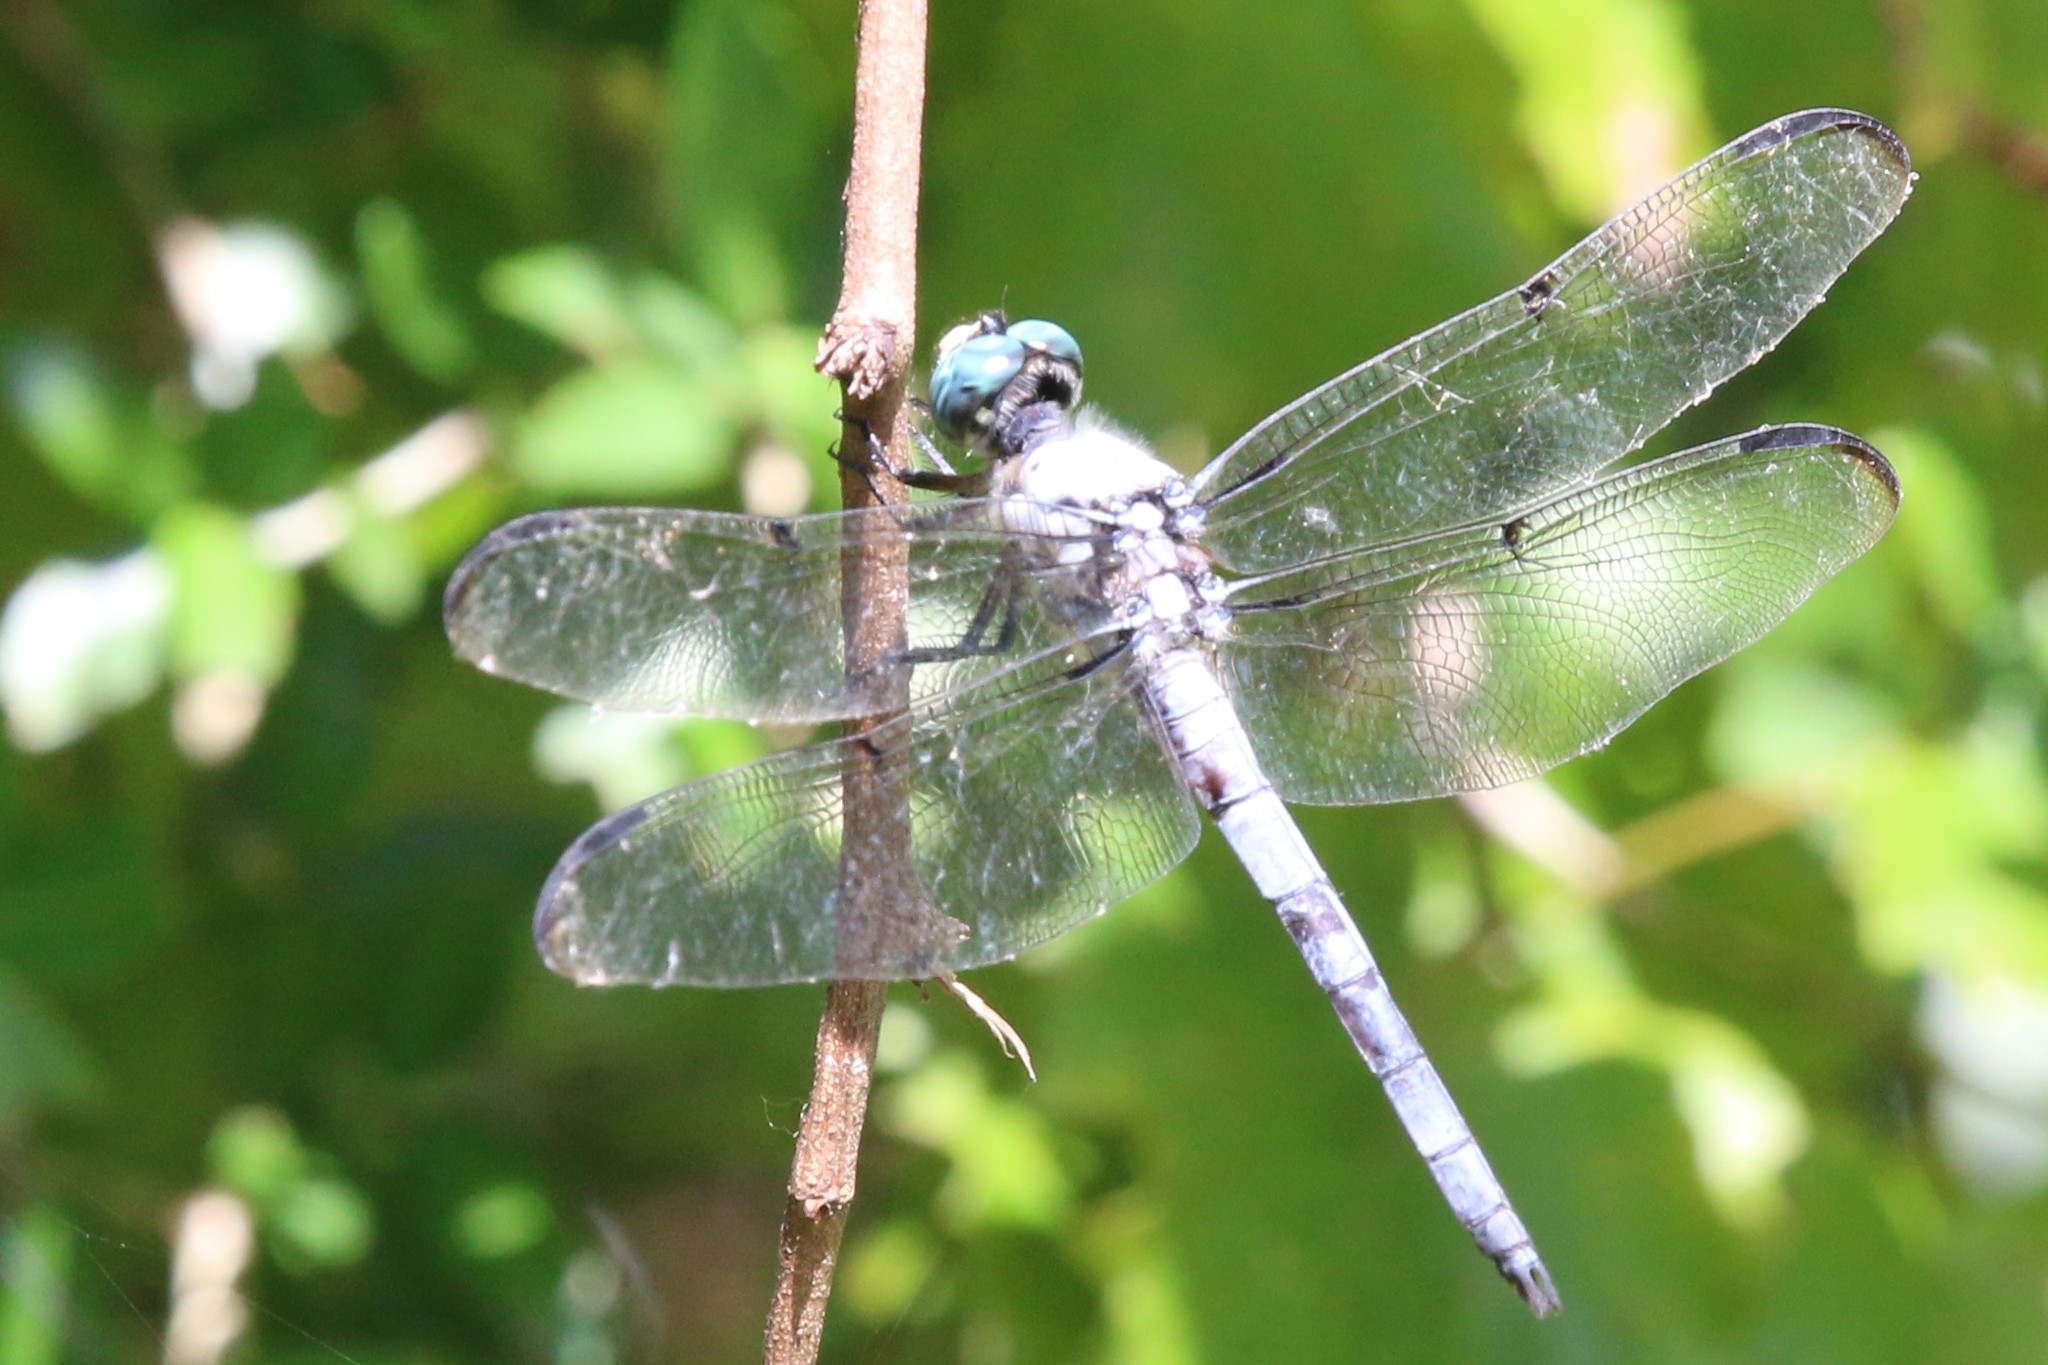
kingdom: Animalia
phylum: Arthropoda
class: Insecta
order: Odonata
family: Libellulidae
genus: Libellula
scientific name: Libellula vibrans
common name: Great blue skimmer
